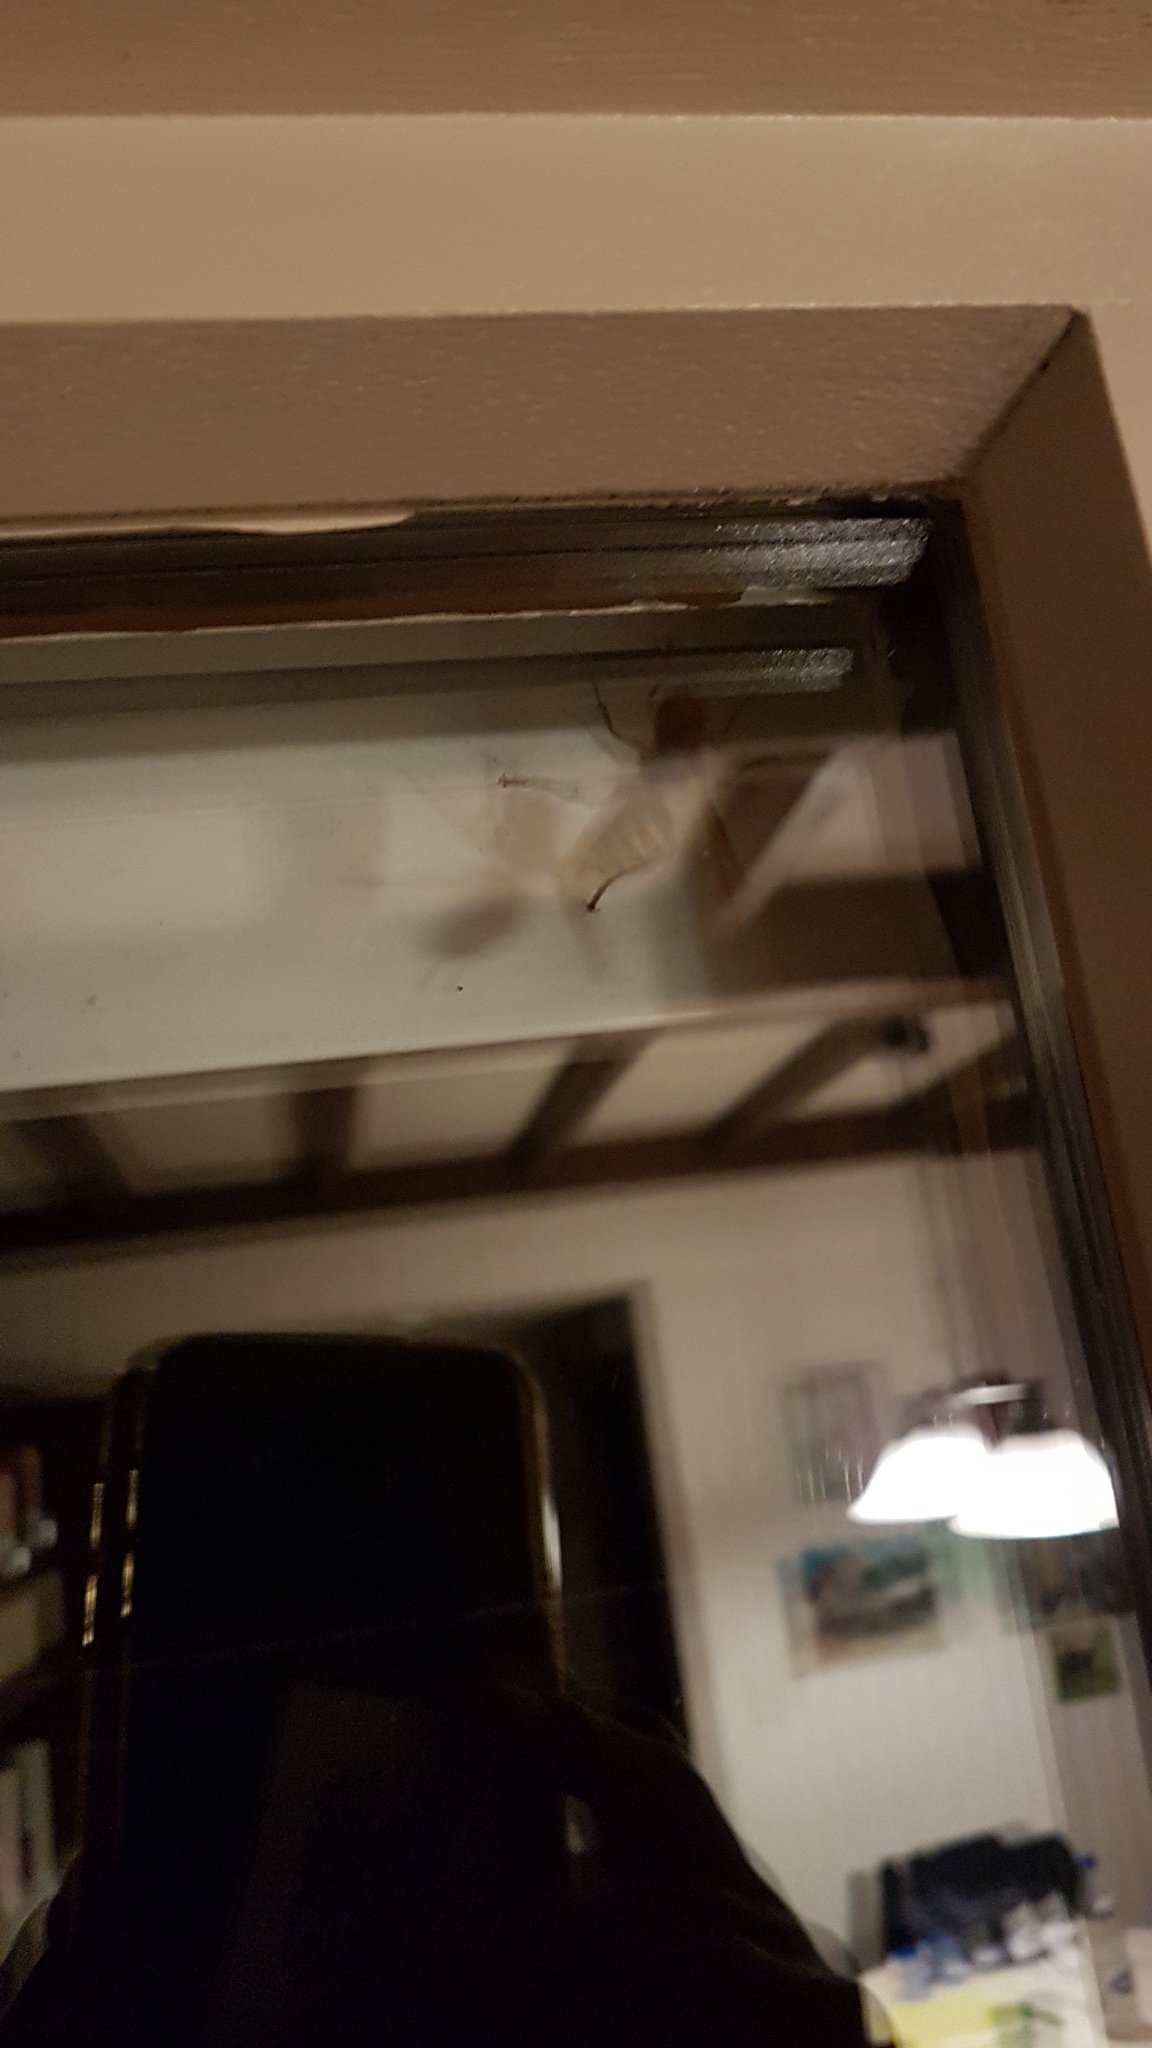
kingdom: Animalia
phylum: Arthropoda
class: Insecta
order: Hymenoptera
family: Vespidae
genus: Vespa
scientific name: Vespa crabro
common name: Hornet
